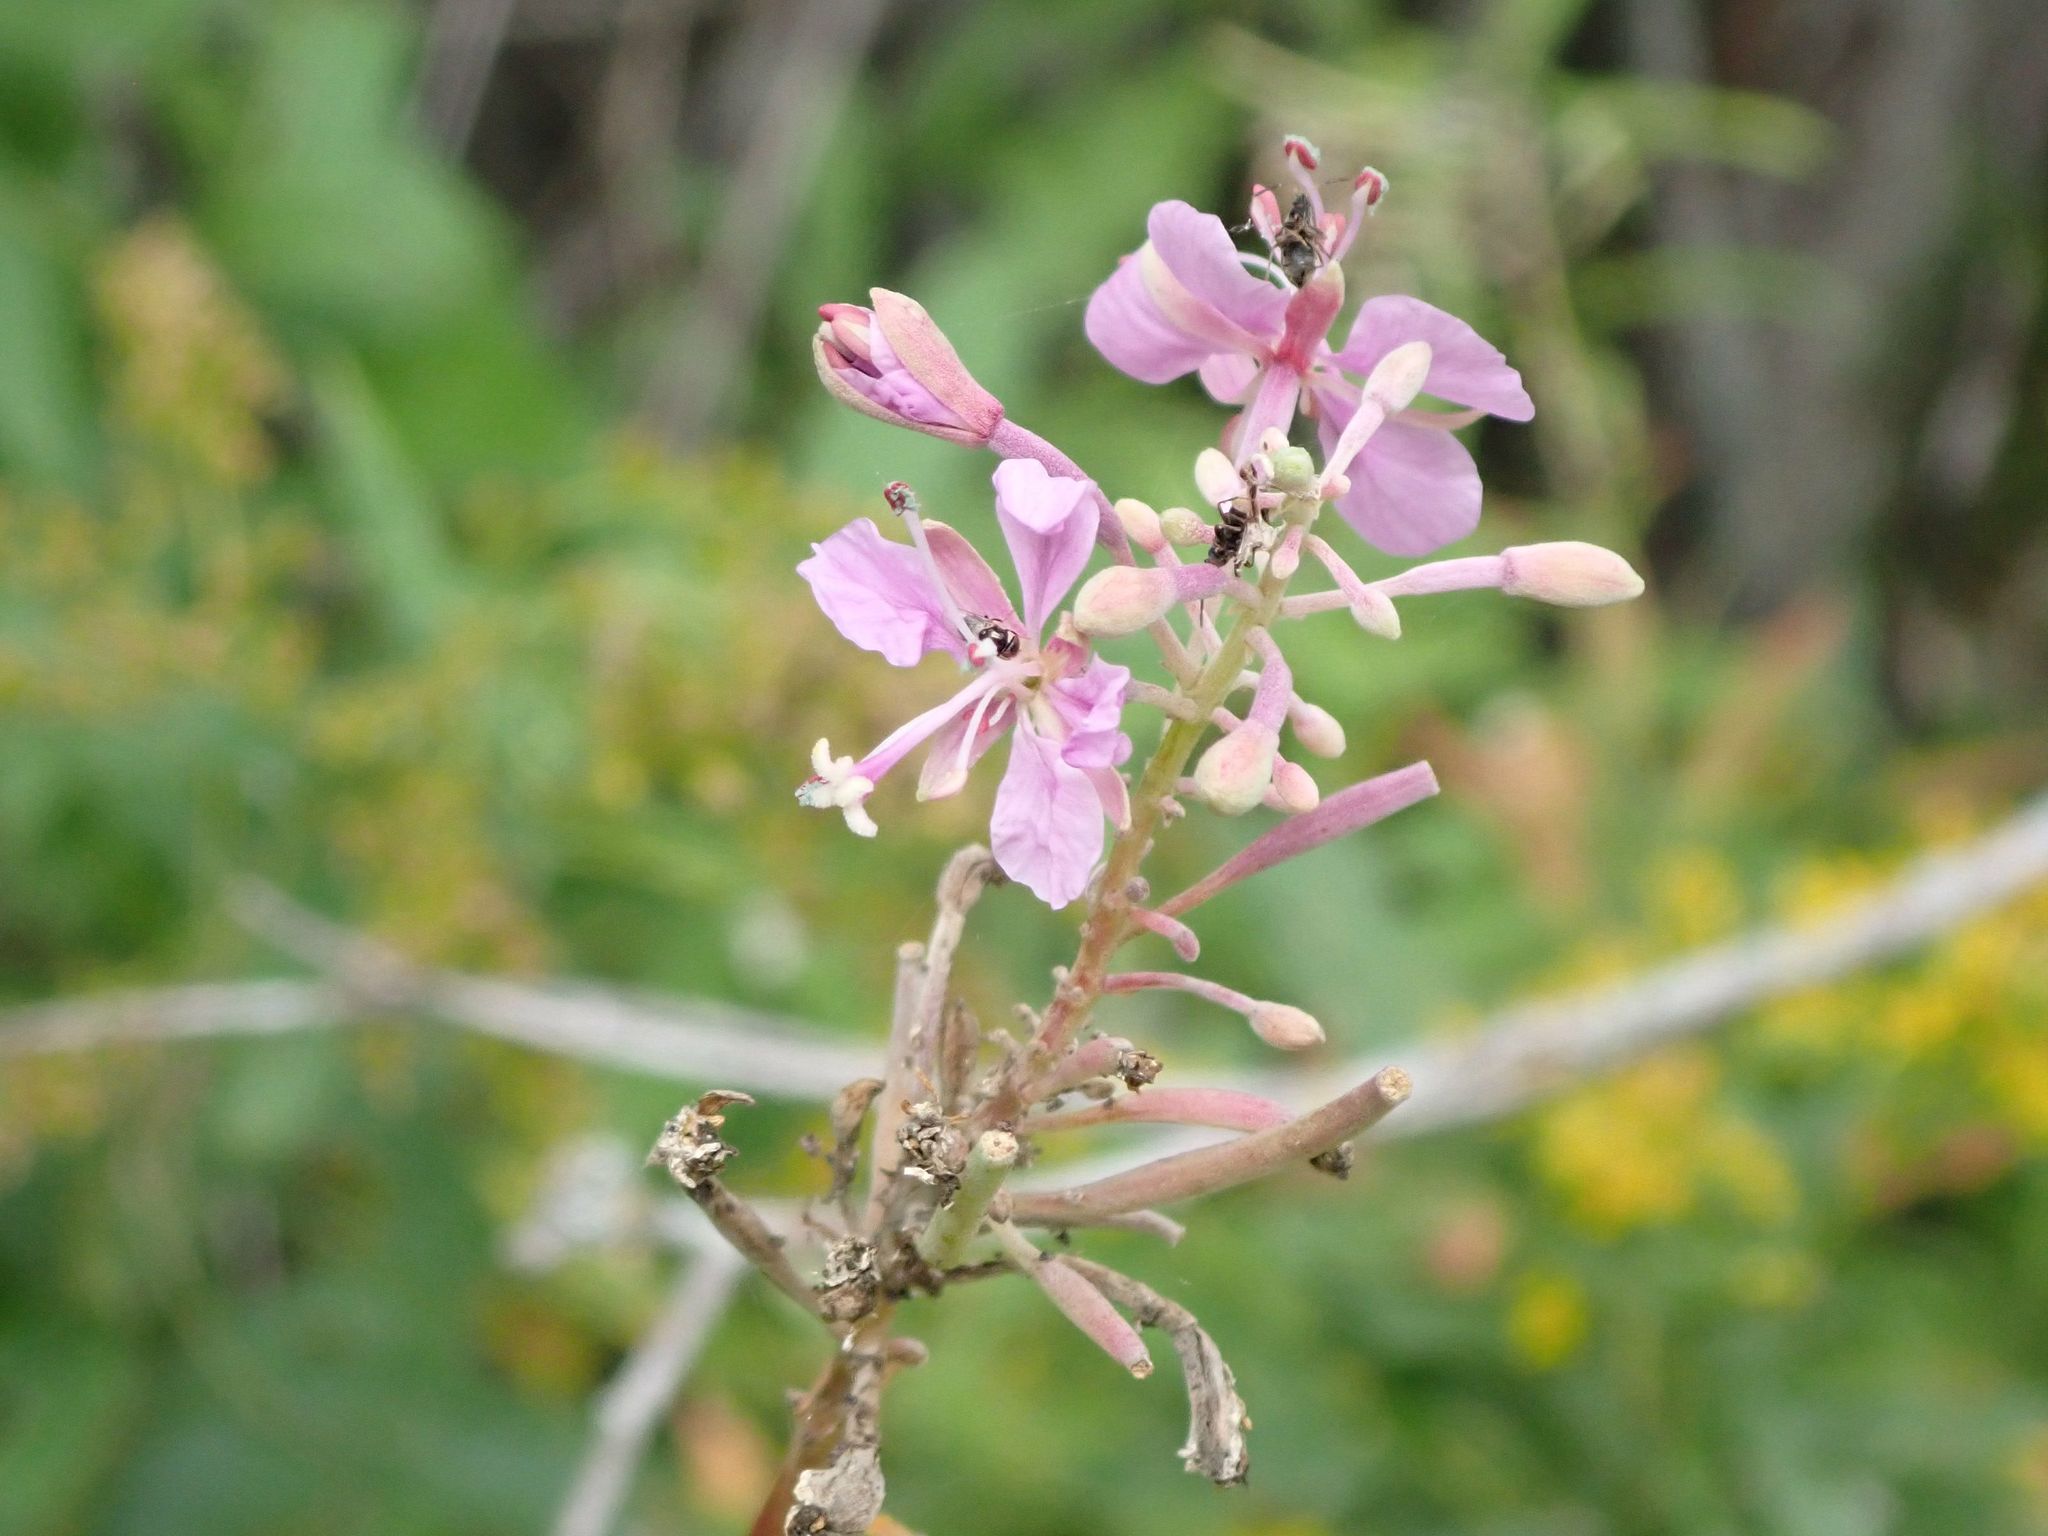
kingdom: Plantae
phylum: Tracheophyta
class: Magnoliopsida
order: Myrtales
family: Onagraceae
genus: Chamaenerion
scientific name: Chamaenerion angustifolium
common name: Fireweed
